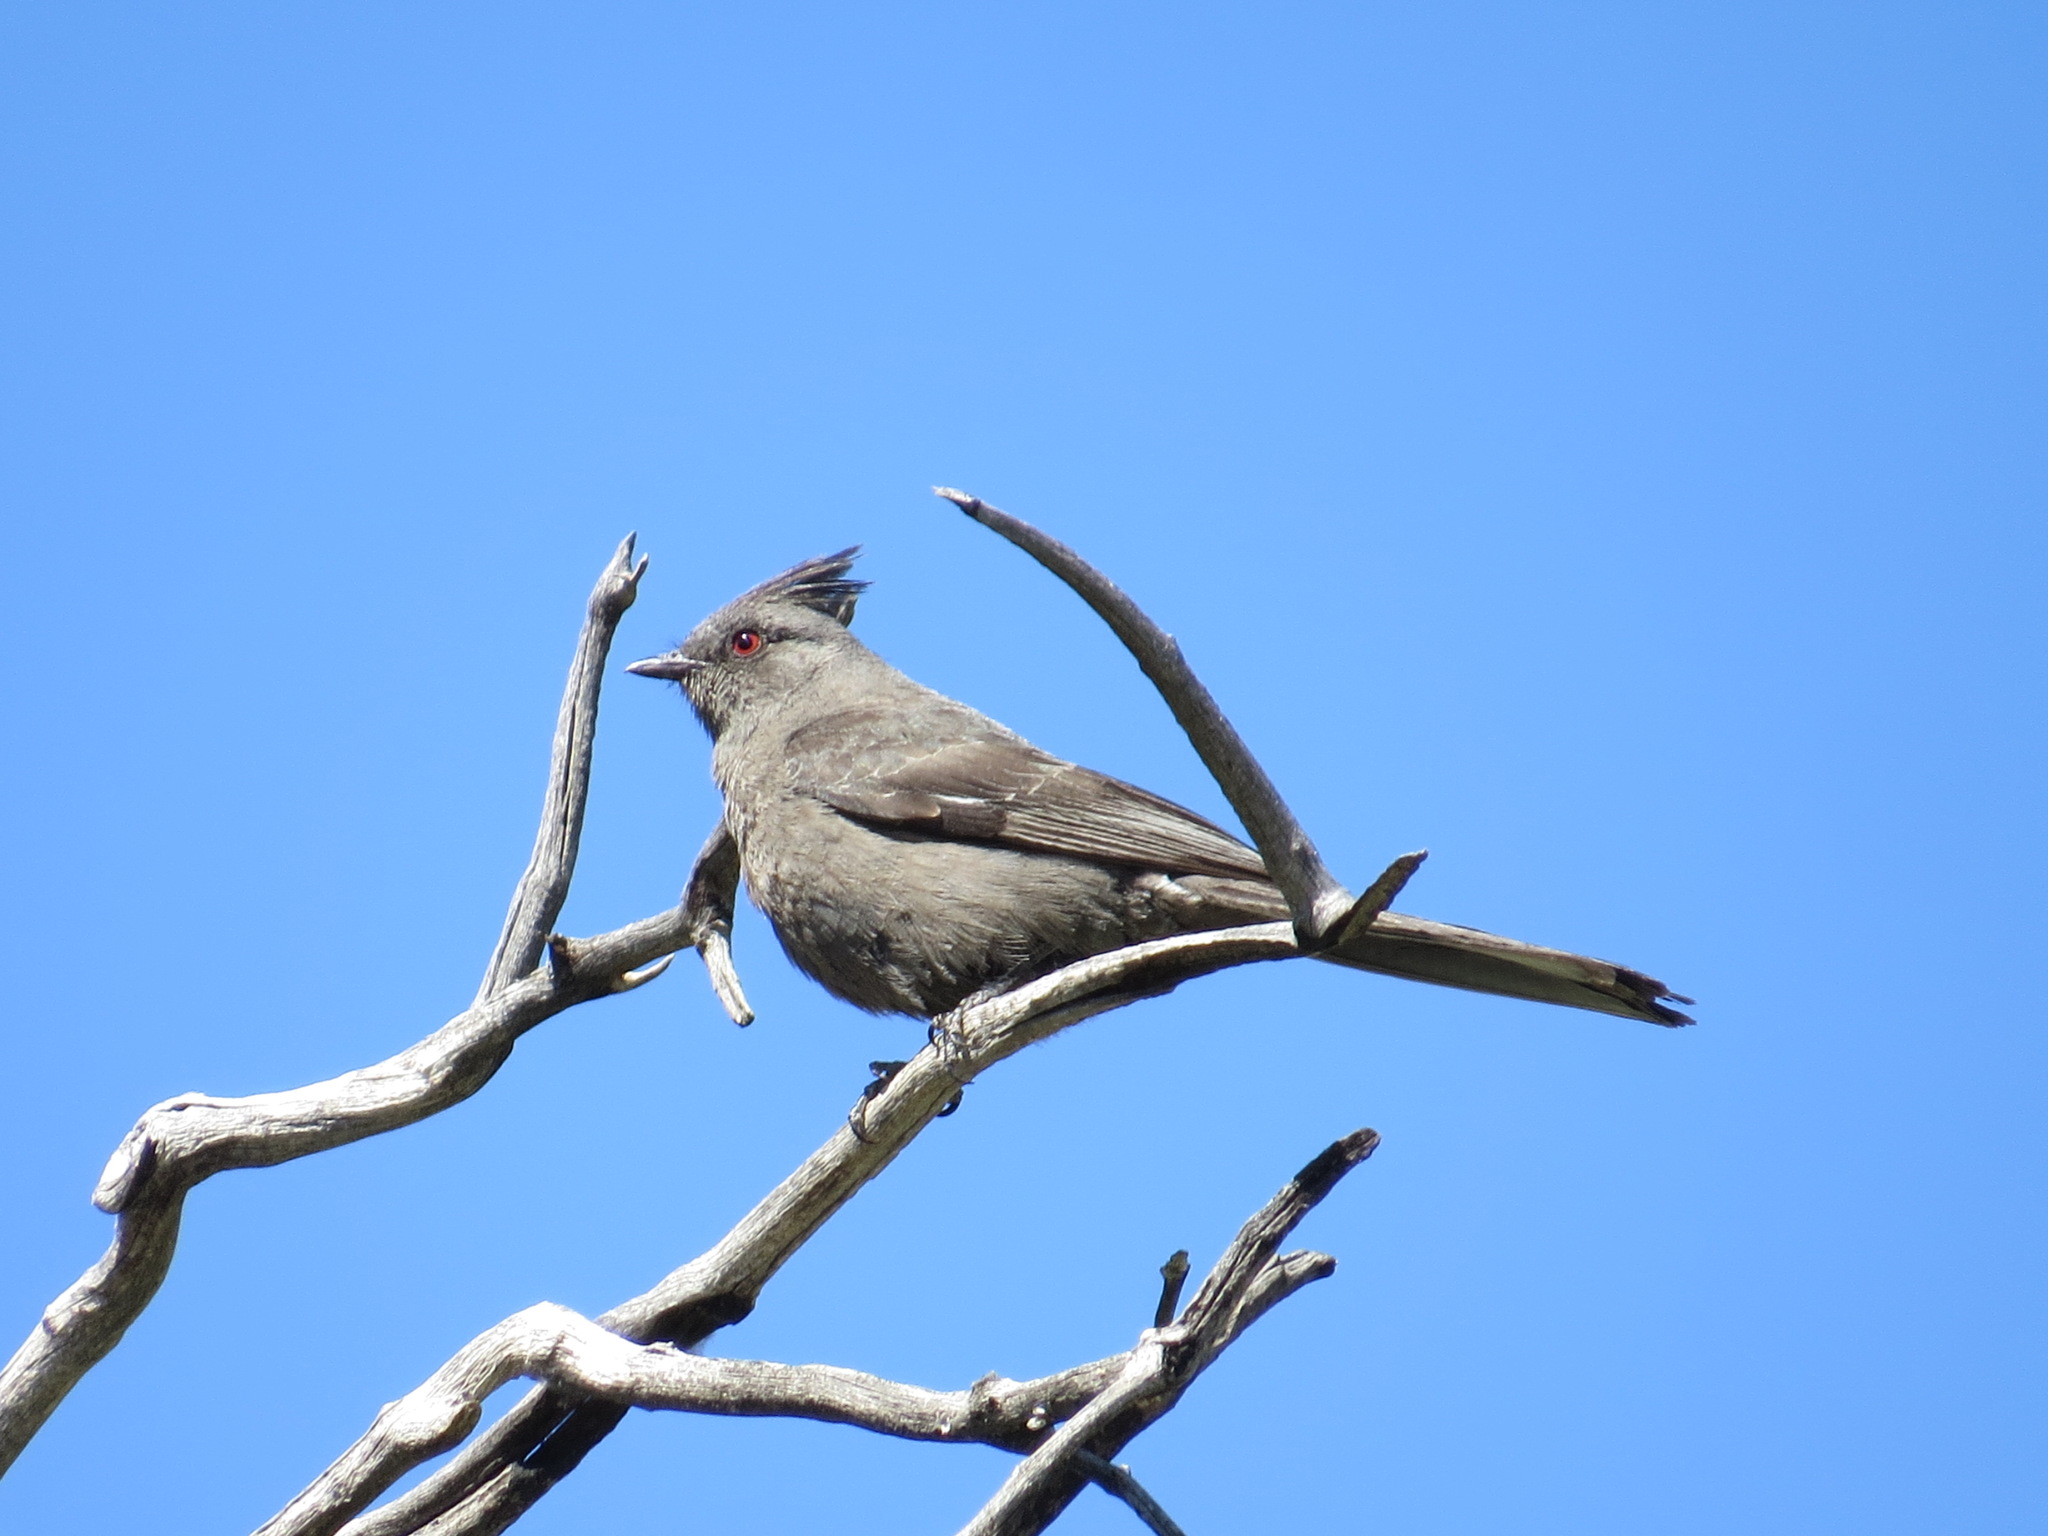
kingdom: Animalia
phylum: Chordata
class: Aves
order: Passeriformes
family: Ptilogonatidae
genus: Phainopepla
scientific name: Phainopepla nitens
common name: Phainopepla
